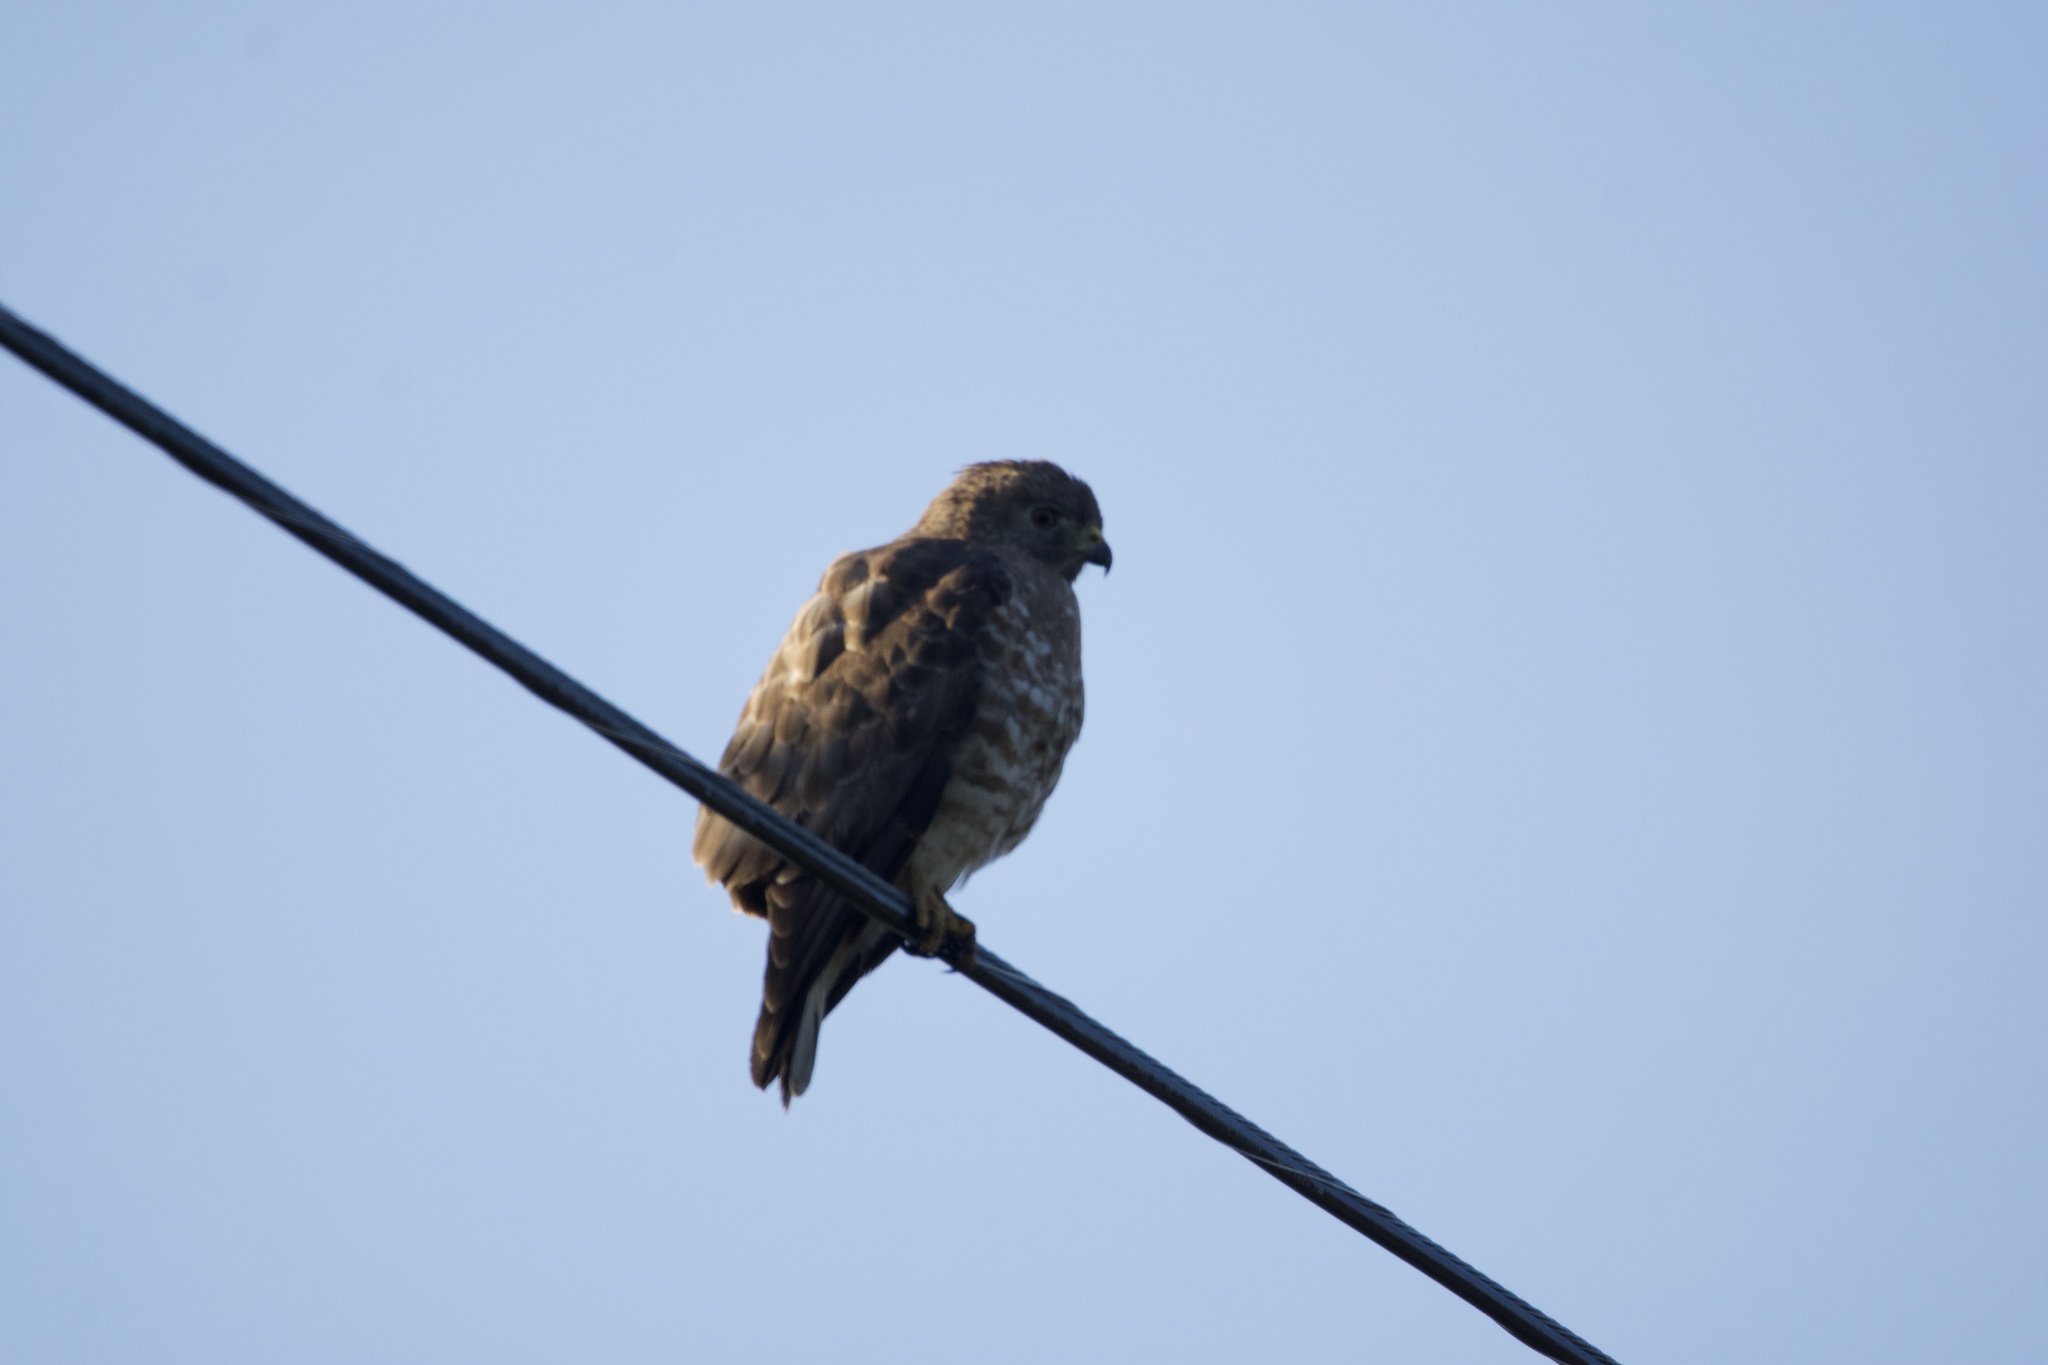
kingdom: Animalia
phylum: Chordata
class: Aves
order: Accipitriformes
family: Accipitridae
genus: Buteo
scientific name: Buteo platypterus
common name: Broad-winged hawk
